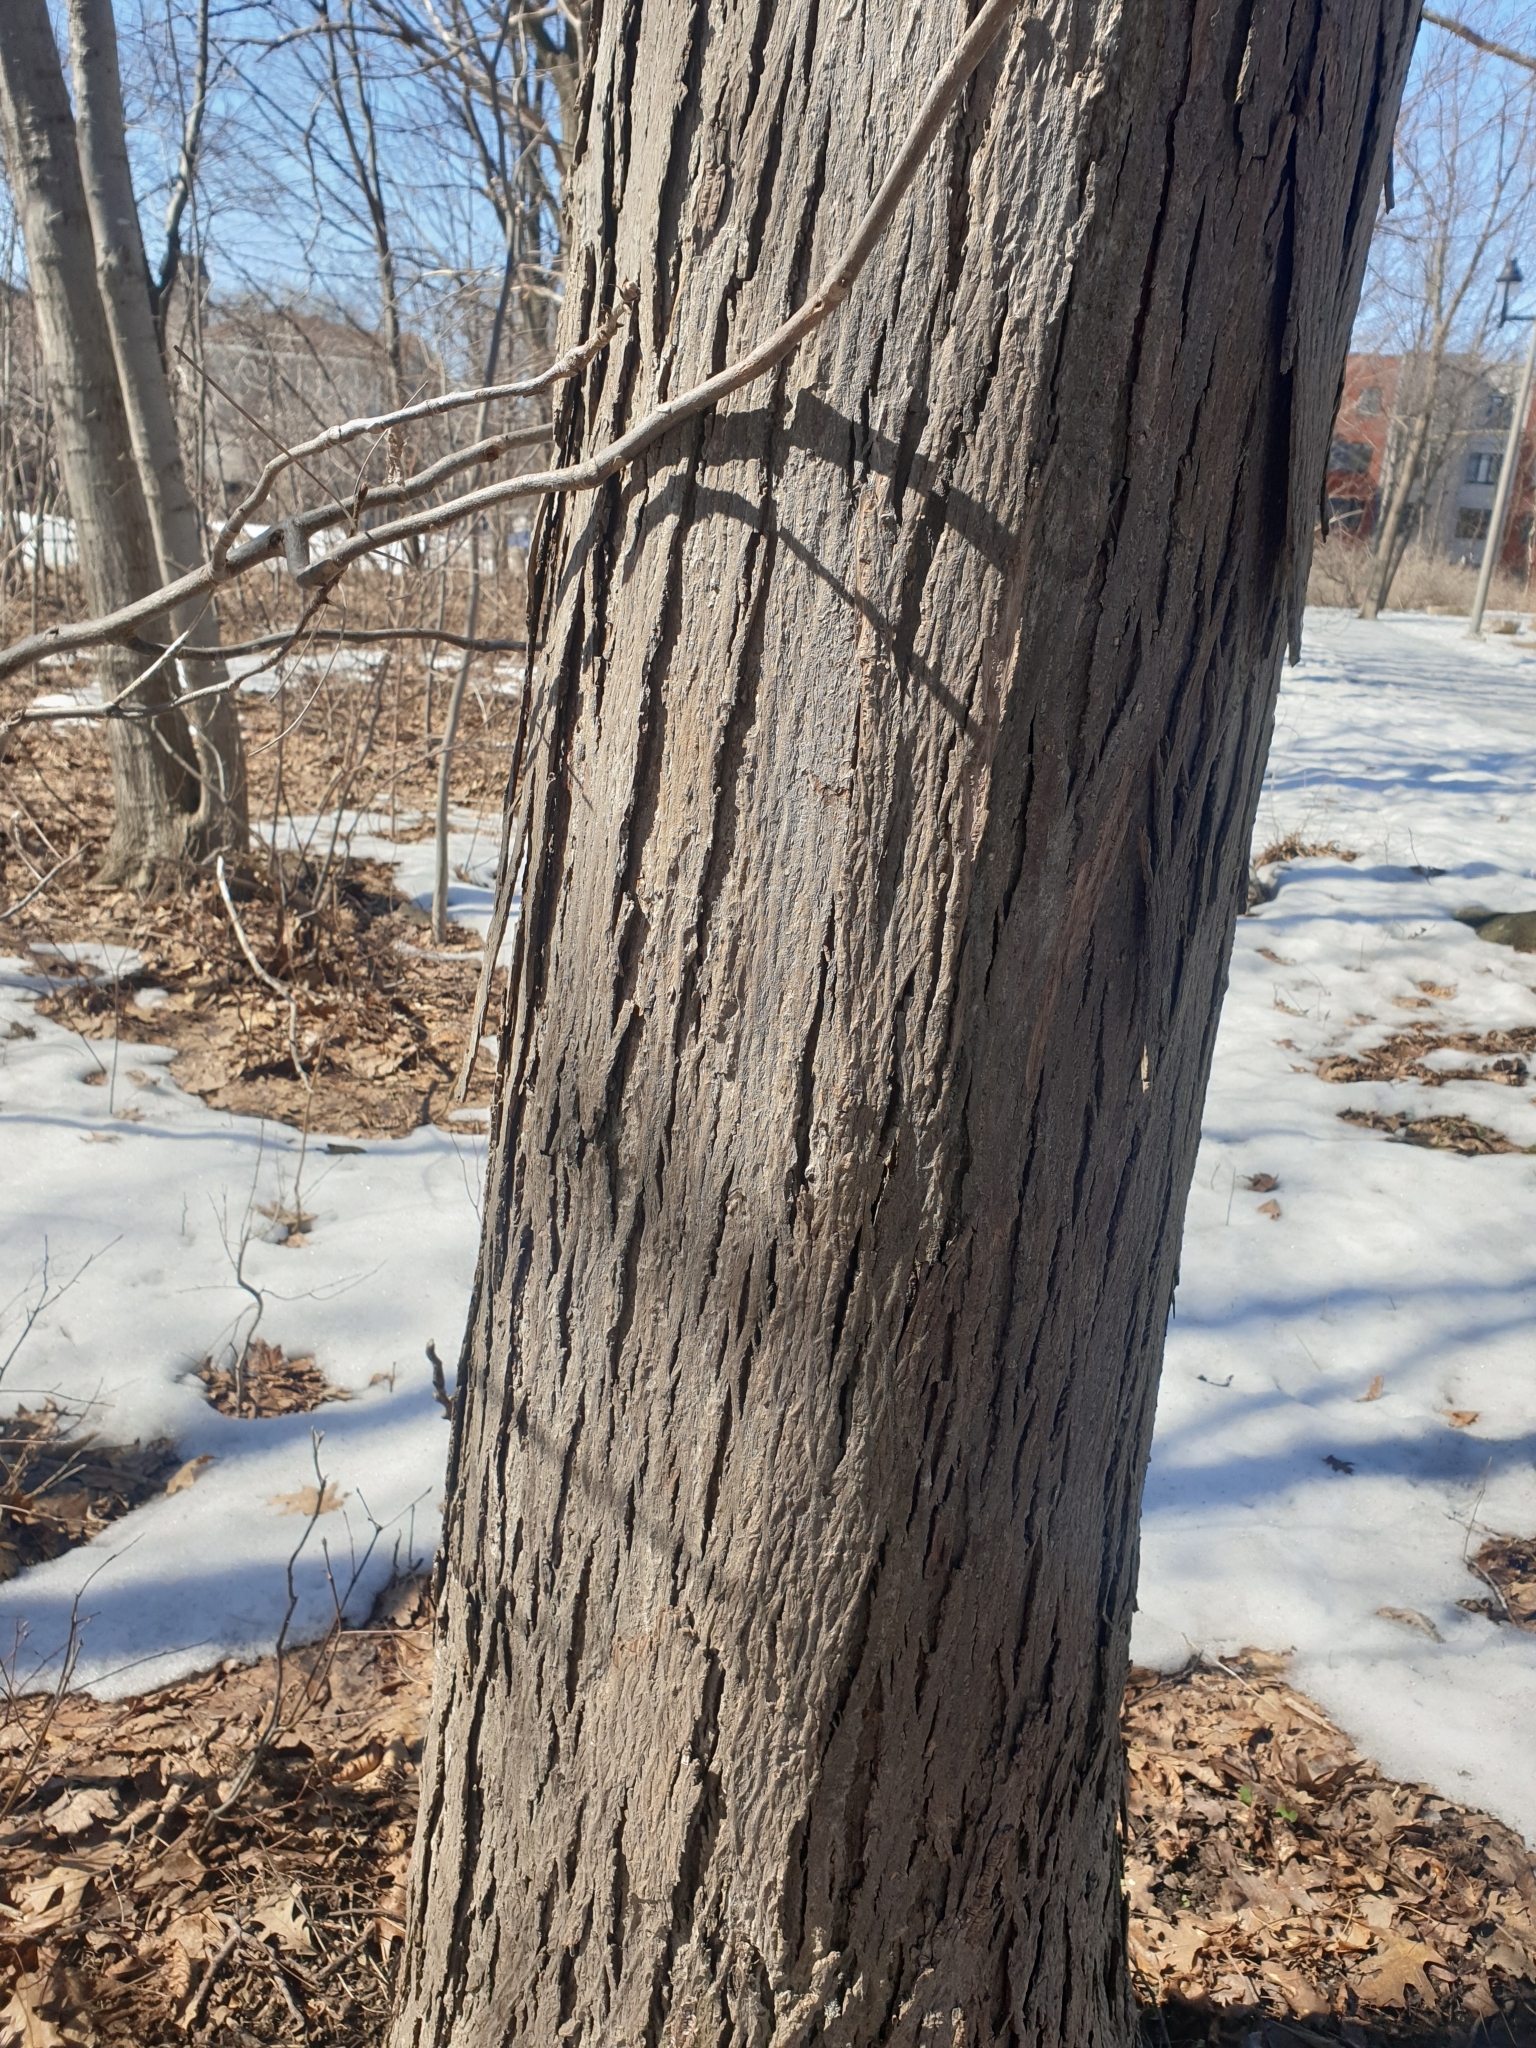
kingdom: Plantae
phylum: Tracheophyta
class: Magnoliopsida
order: Fagales
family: Juglandaceae
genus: Carya
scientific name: Carya ovata
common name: Shagbark hickory
